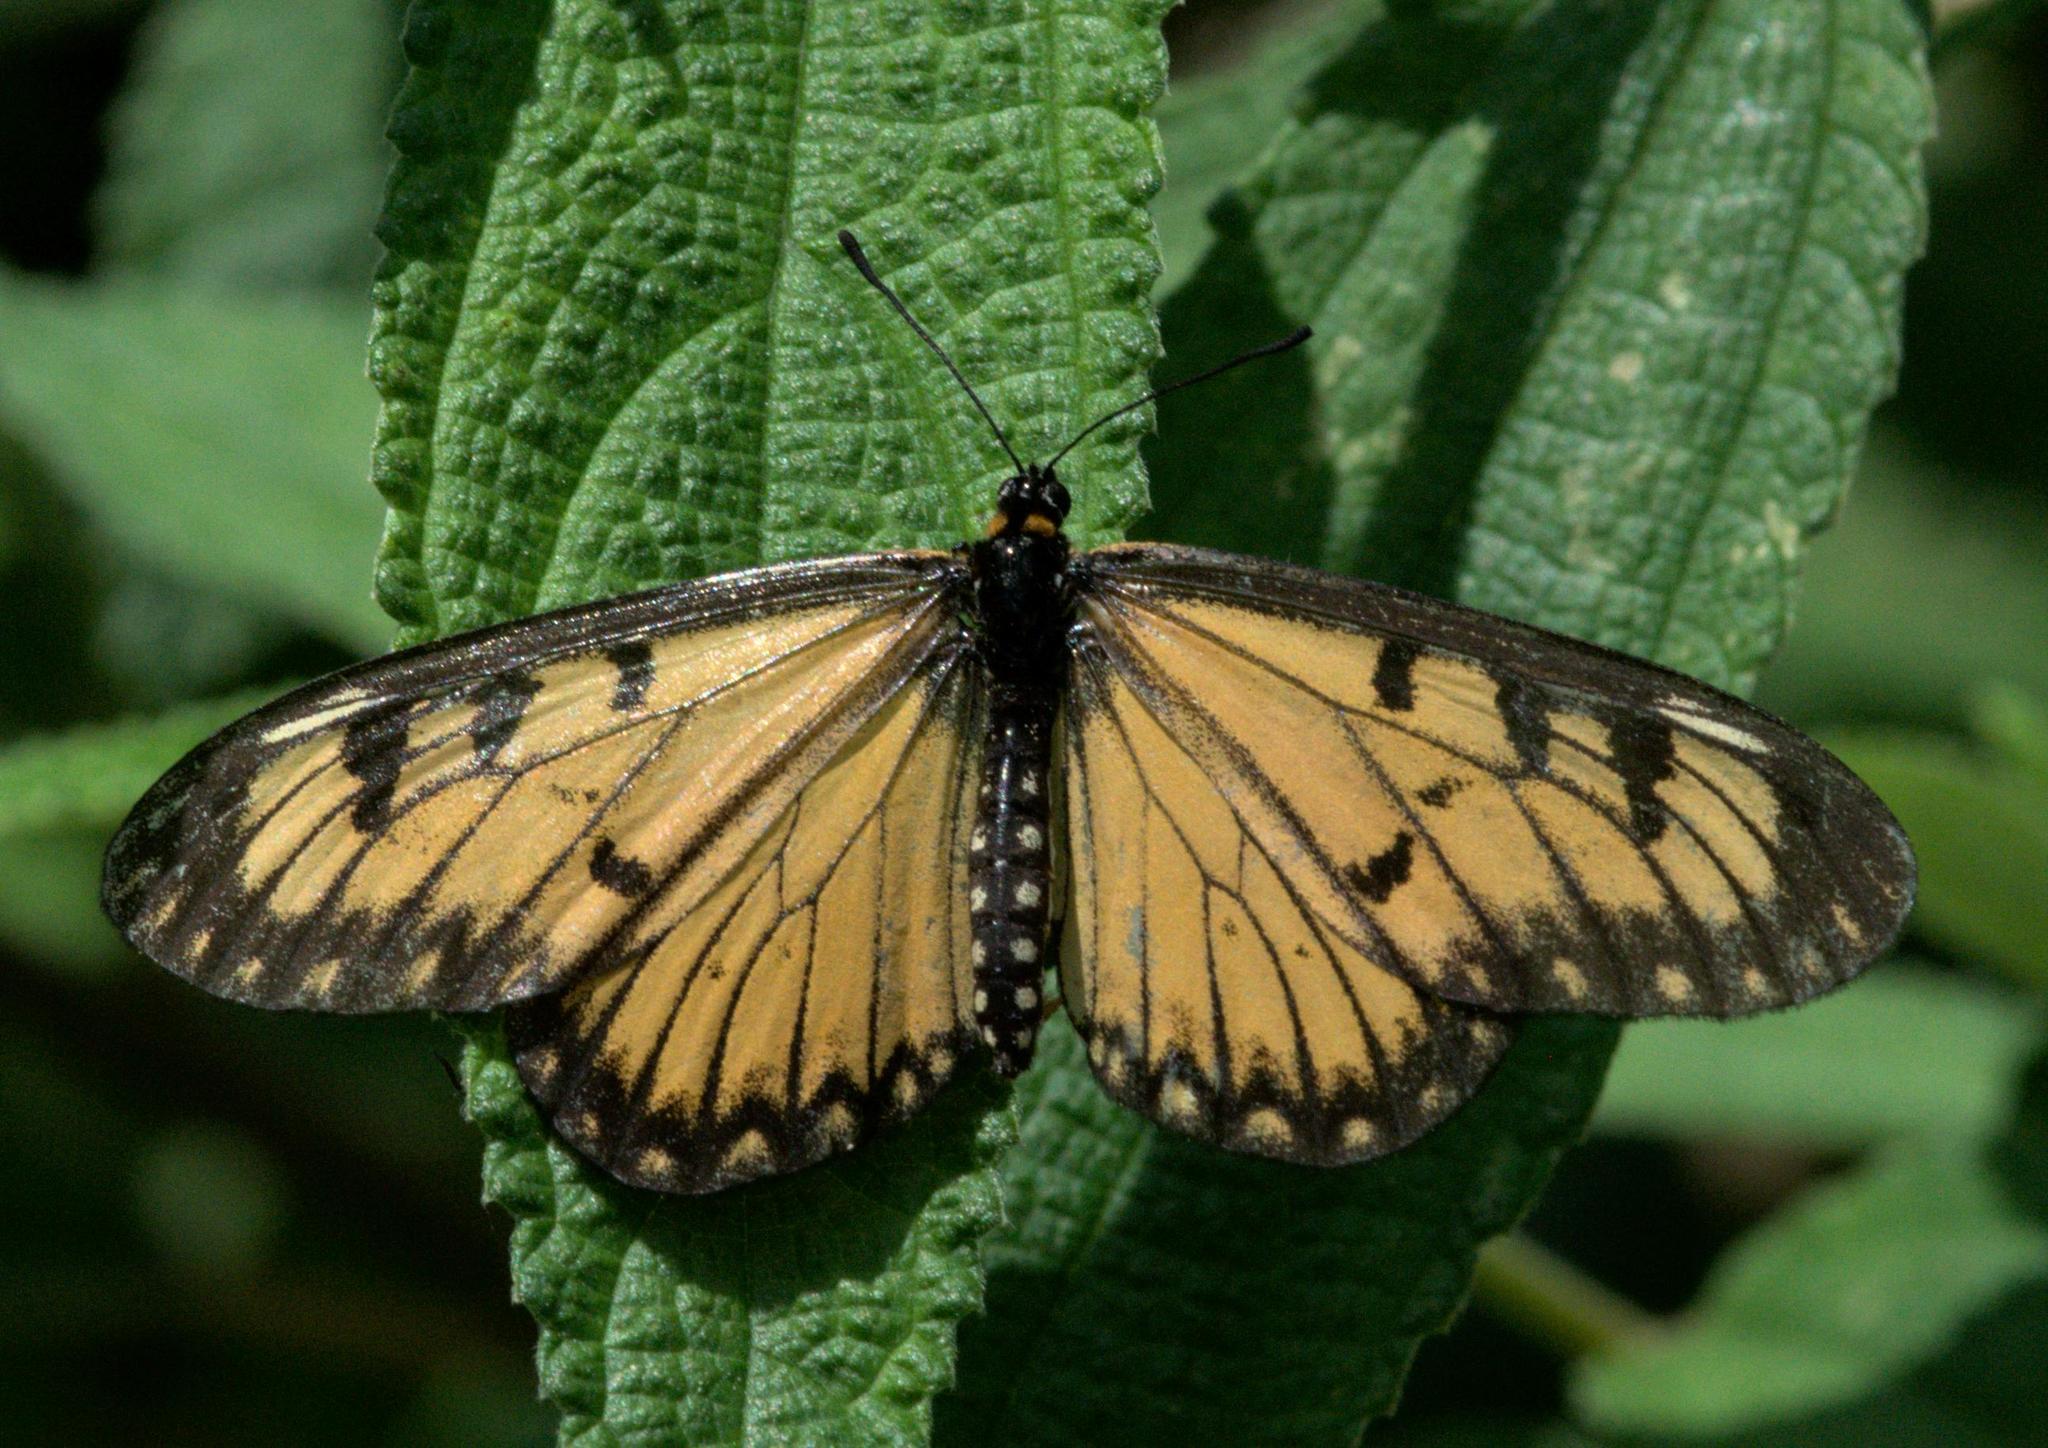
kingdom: Animalia
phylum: Arthropoda
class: Insecta
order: Lepidoptera
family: Nymphalidae
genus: Acraea
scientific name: Acraea Telchinia issoria
